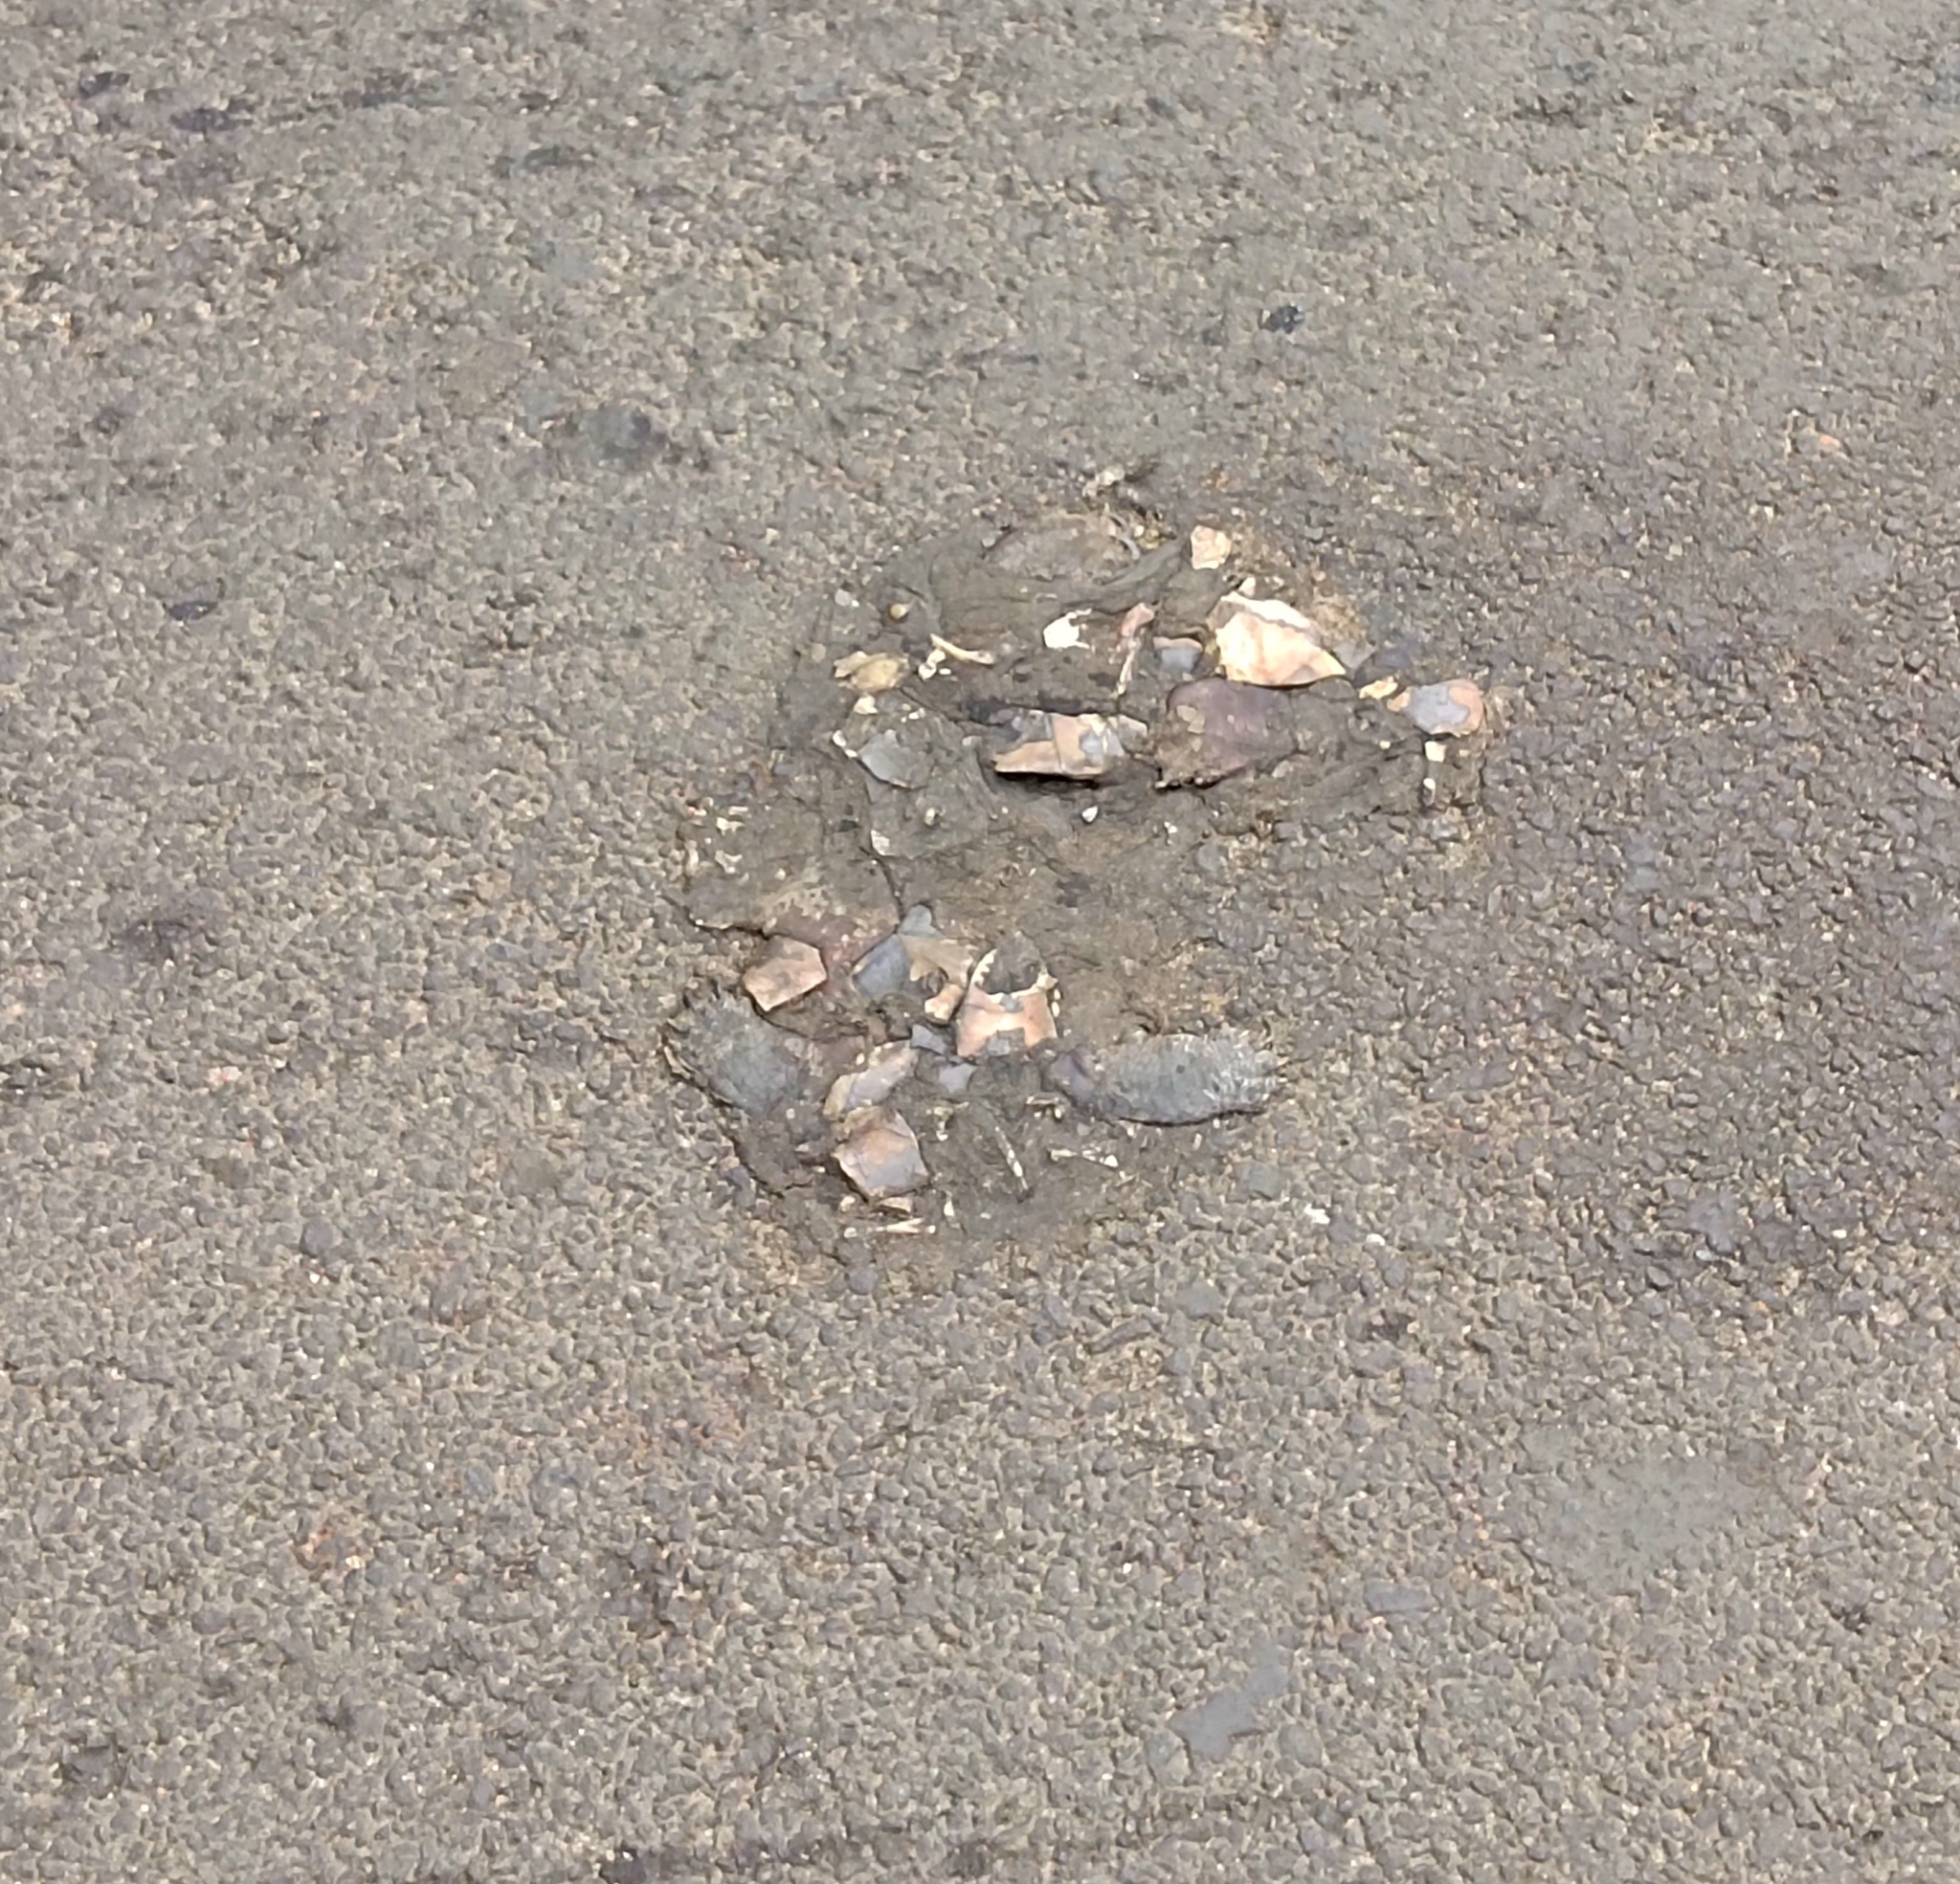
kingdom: Animalia
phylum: Chordata
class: Testudines
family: Geoemydidae
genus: Melanochelys
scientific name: Melanochelys trijuga
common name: Indian black turtle
